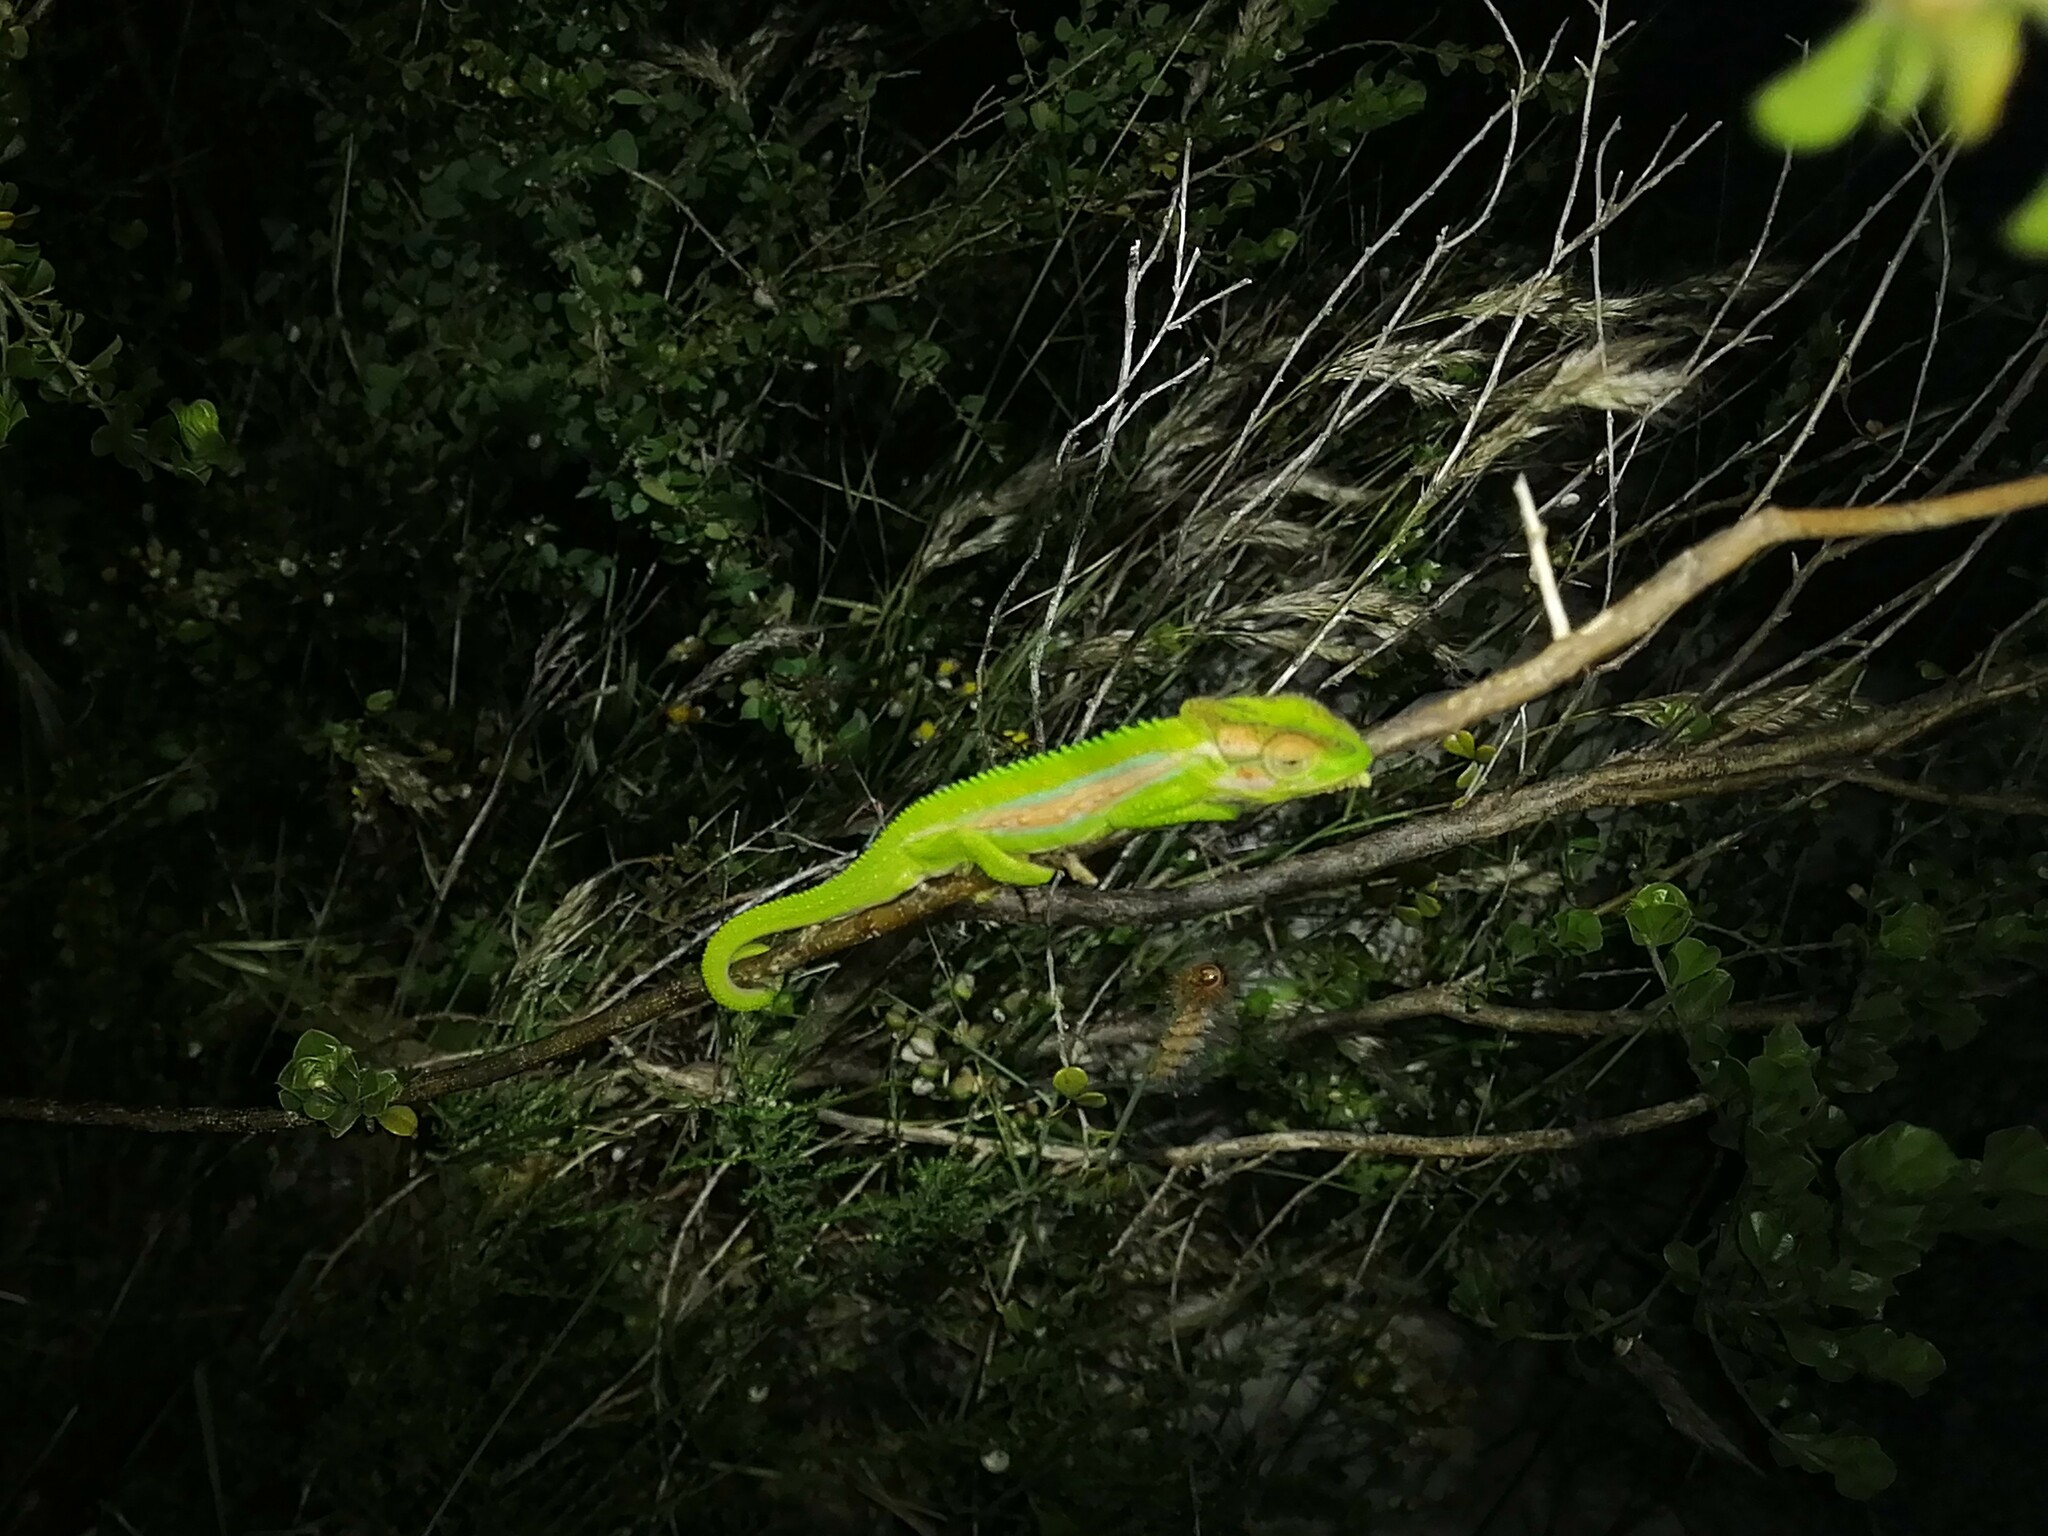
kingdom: Animalia
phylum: Chordata
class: Squamata
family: Chamaeleonidae
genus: Bradypodion
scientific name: Bradypodion pumilum
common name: Cape dwarf chameleon
